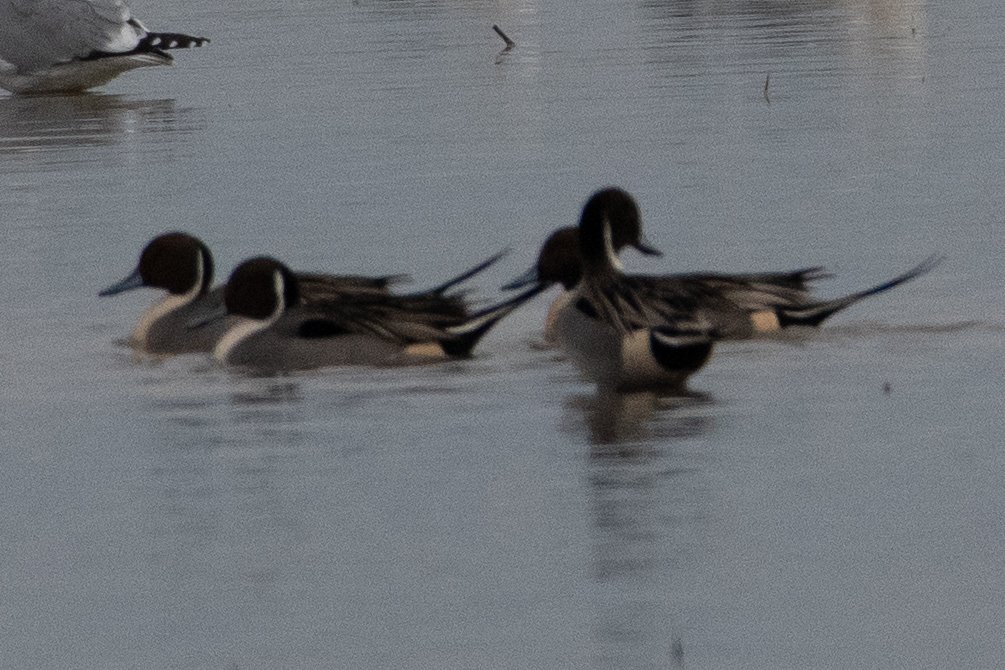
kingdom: Animalia
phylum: Chordata
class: Aves
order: Anseriformes
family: Anatidae
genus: Anas
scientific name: Anas acuta
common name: Northern pintail
